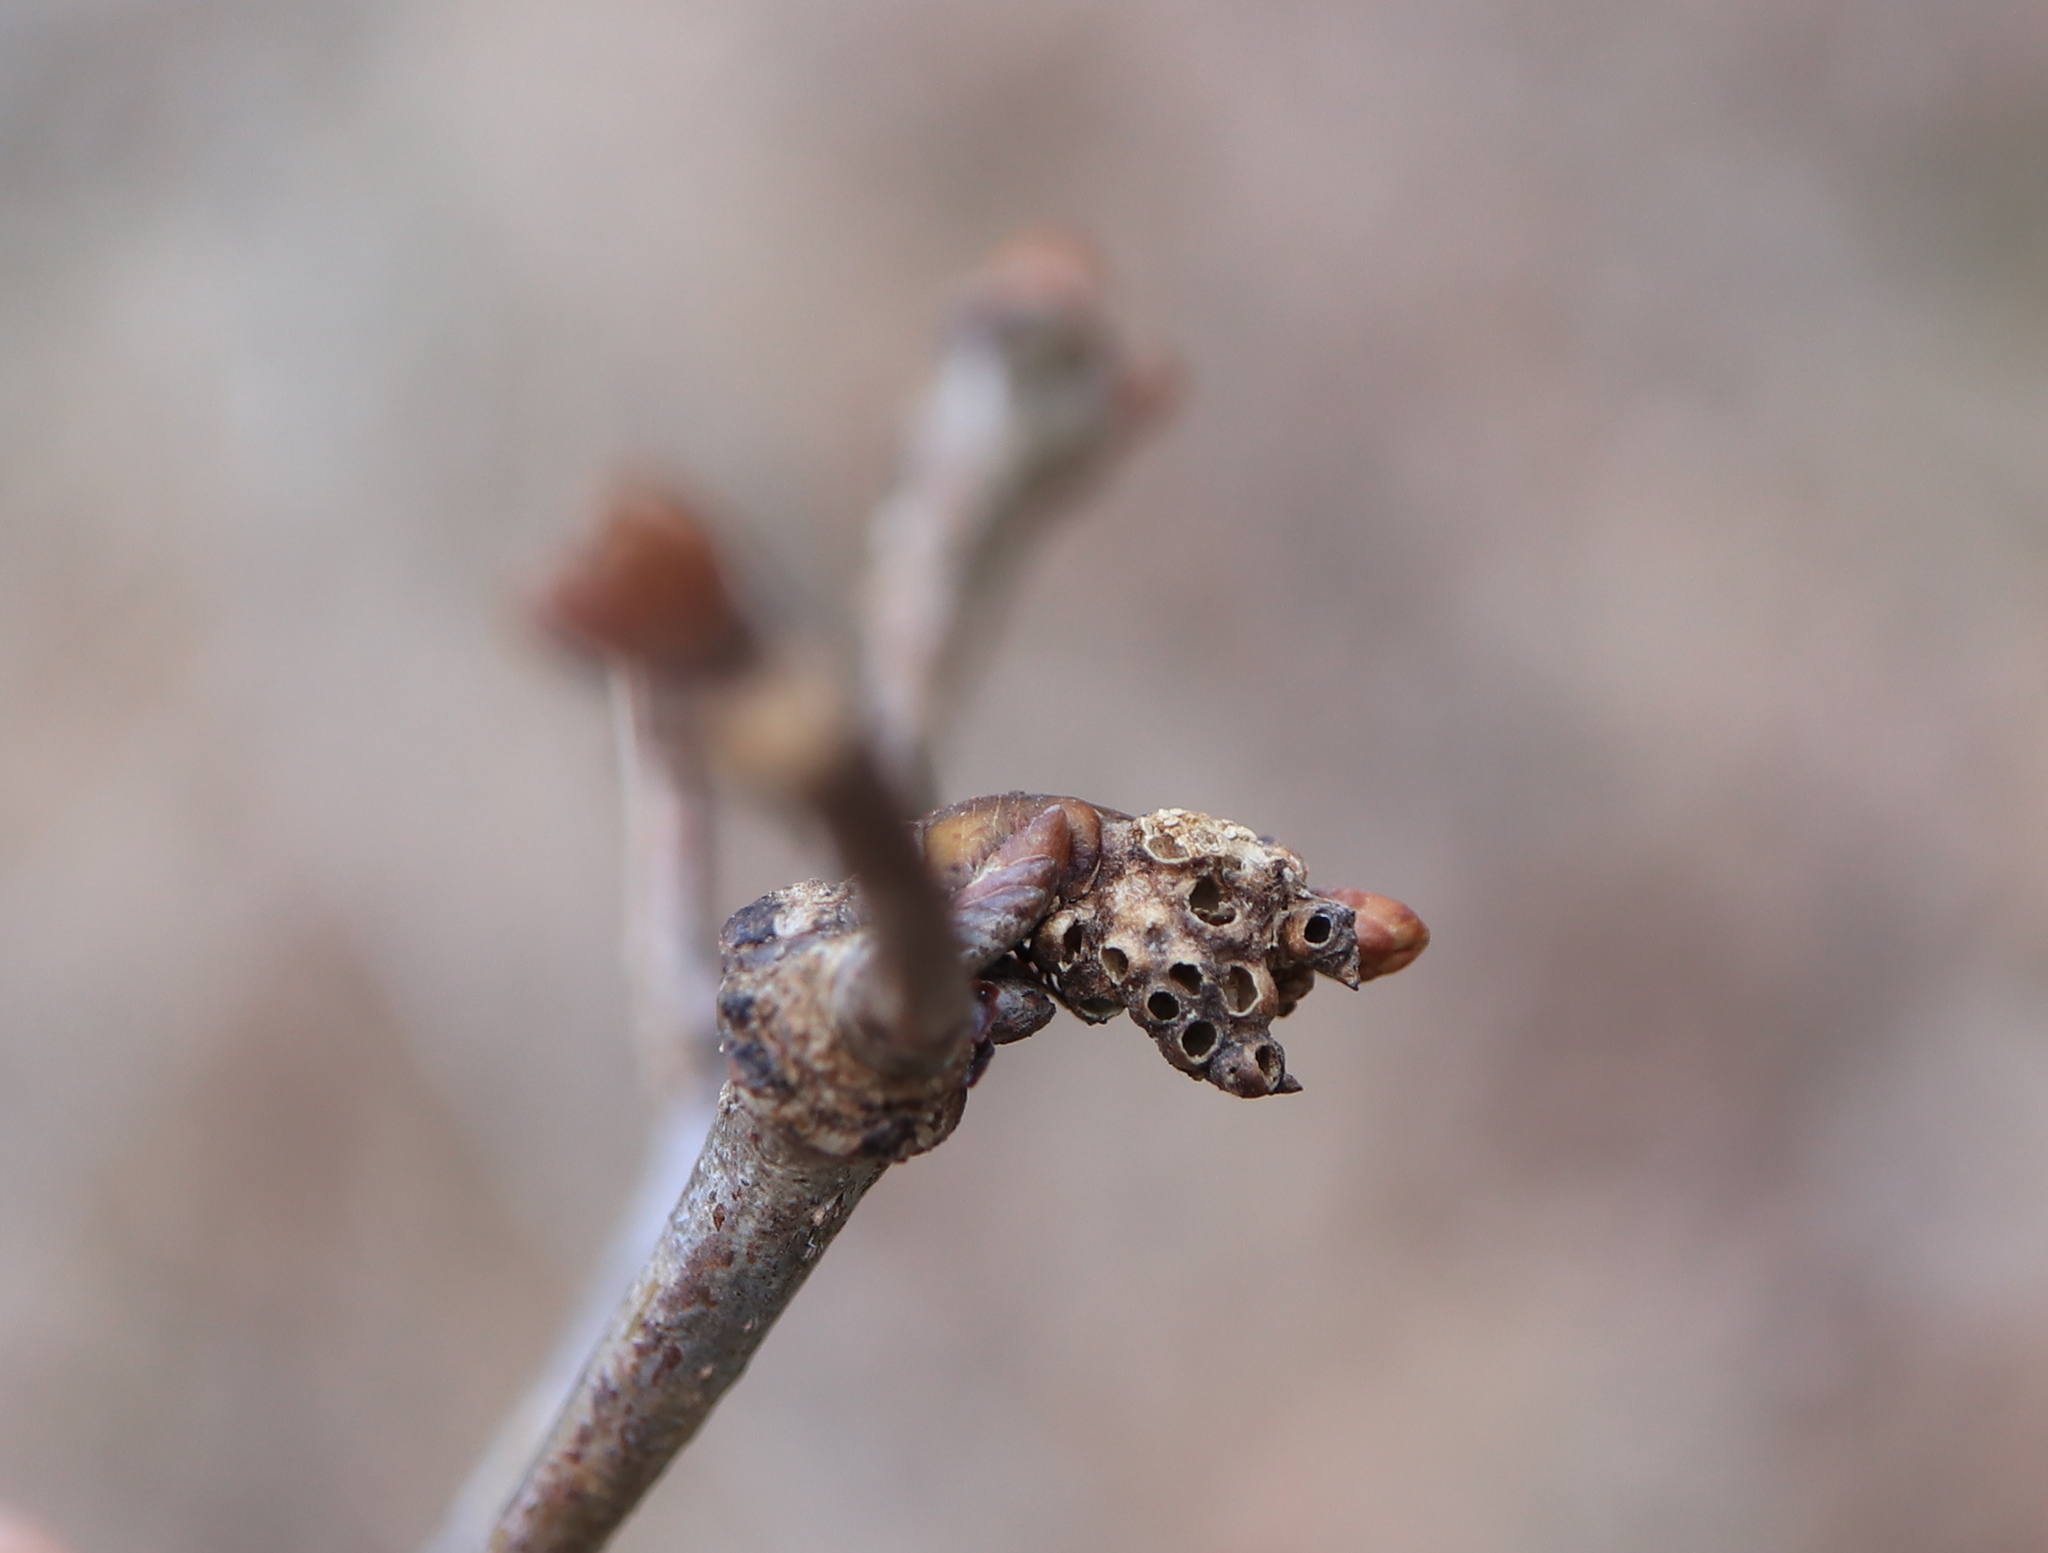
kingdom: Animalia
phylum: Arthropoda
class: Insecta
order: Hymenoptera
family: Cynipidae
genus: Neuroterus
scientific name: Neuroterus minutulus
